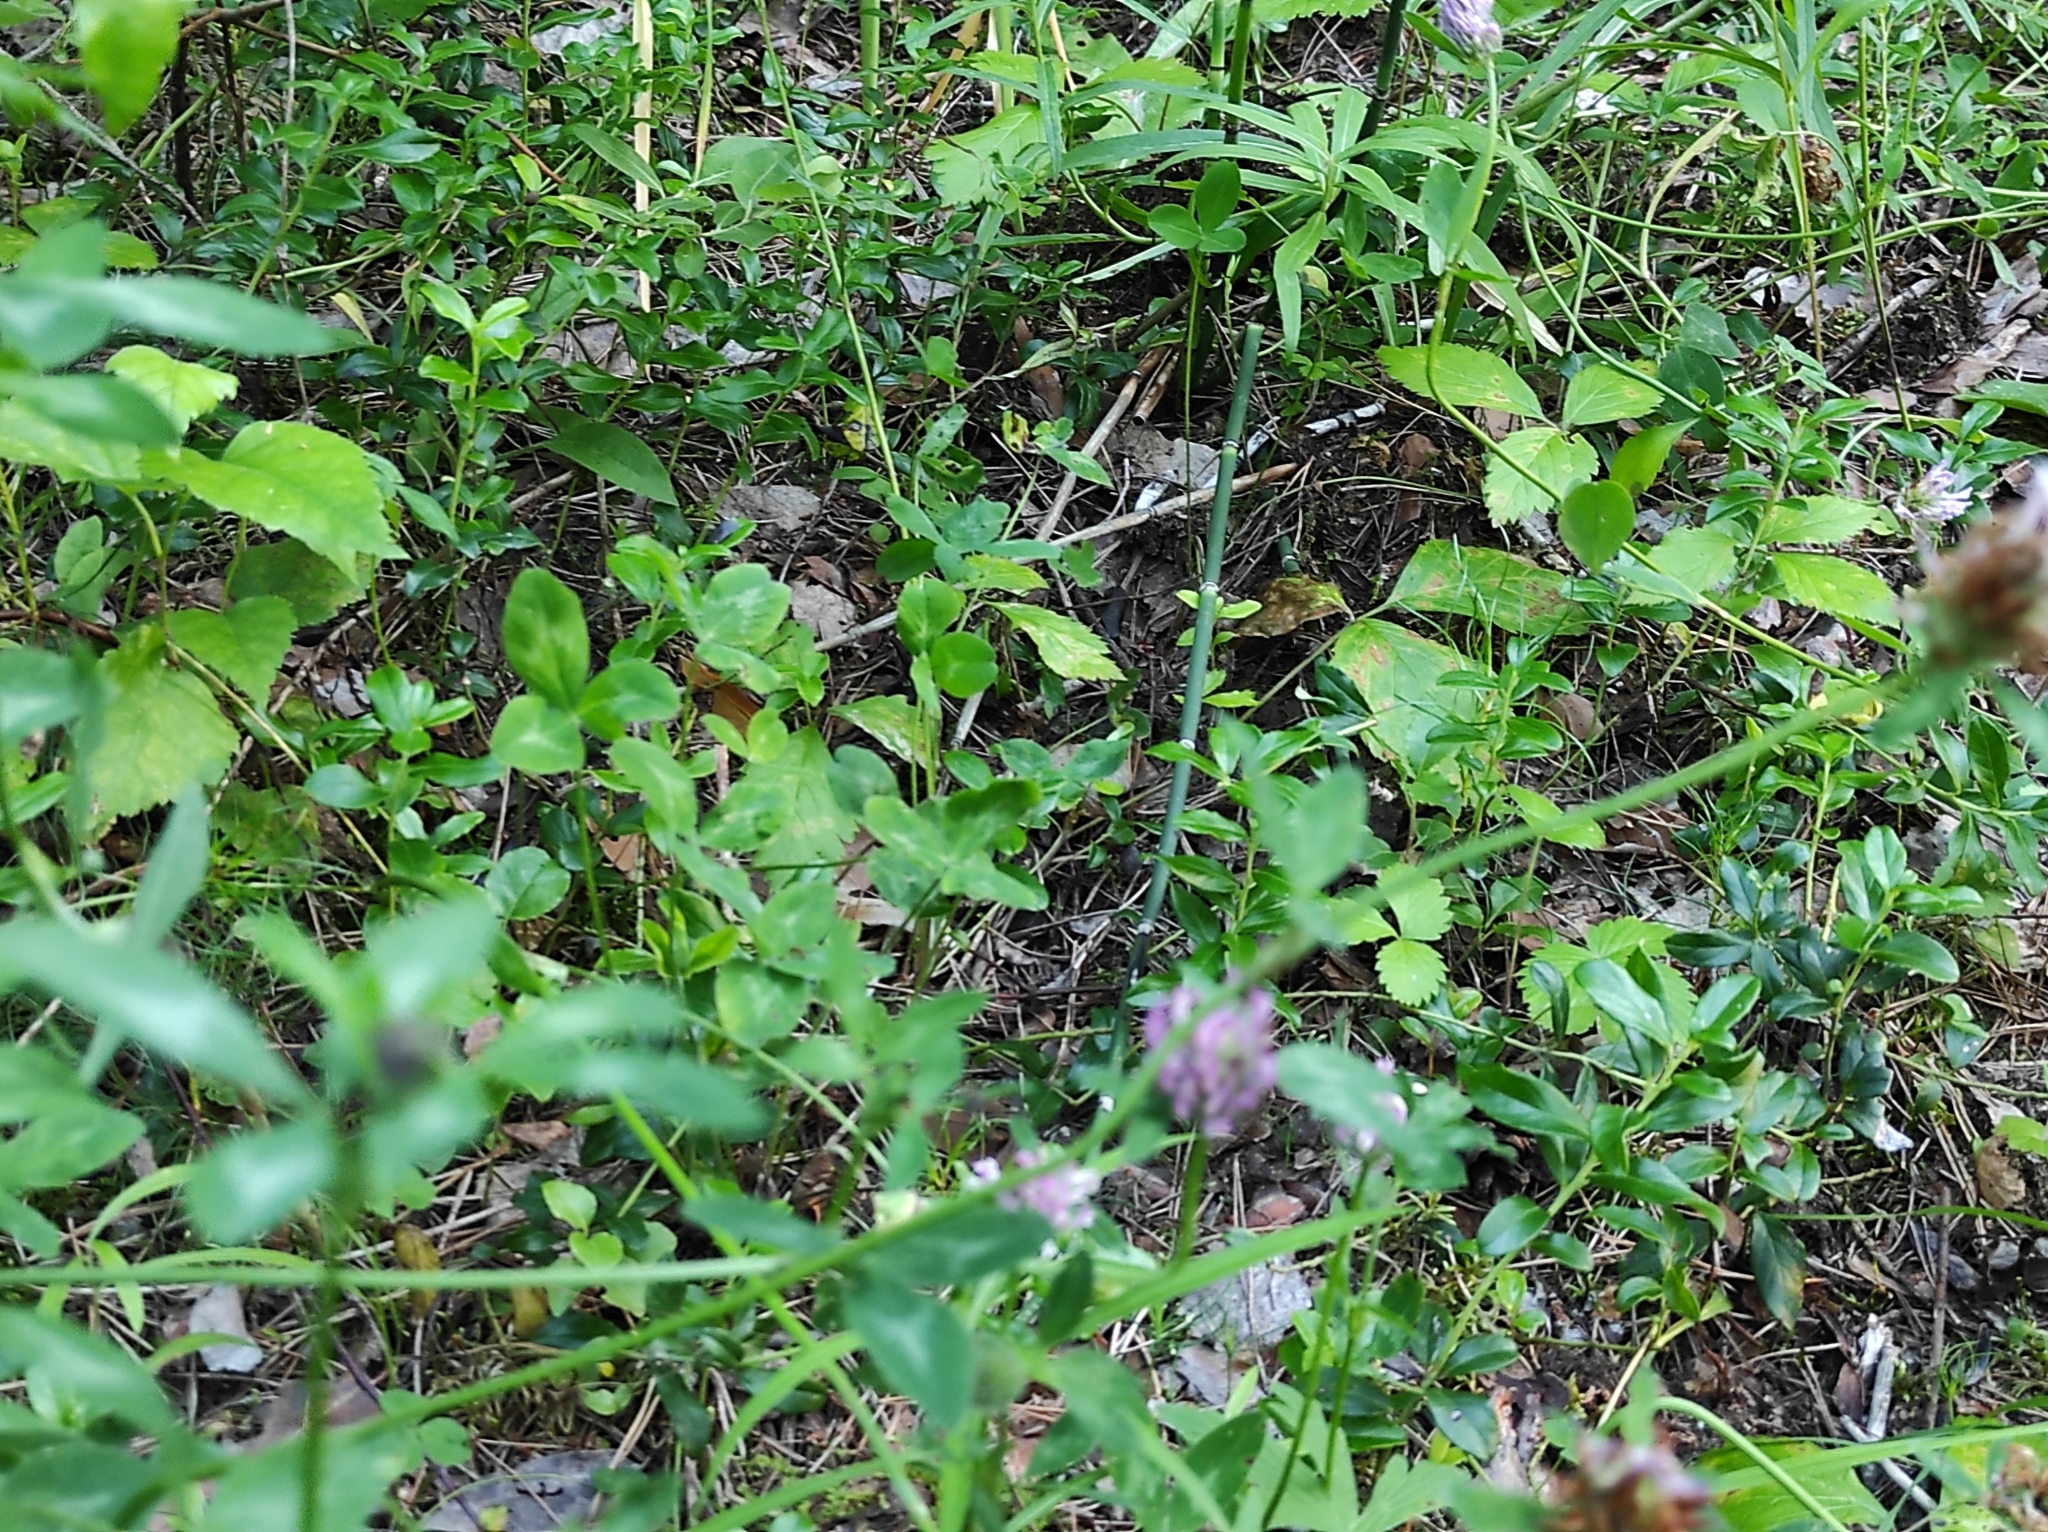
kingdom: Plantae
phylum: Tracheophyta
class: Magnoliopsida
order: Ericales
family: Ericaceae
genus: Vaccinium
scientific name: Vaccinium vitis-idaea
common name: Cowberry
